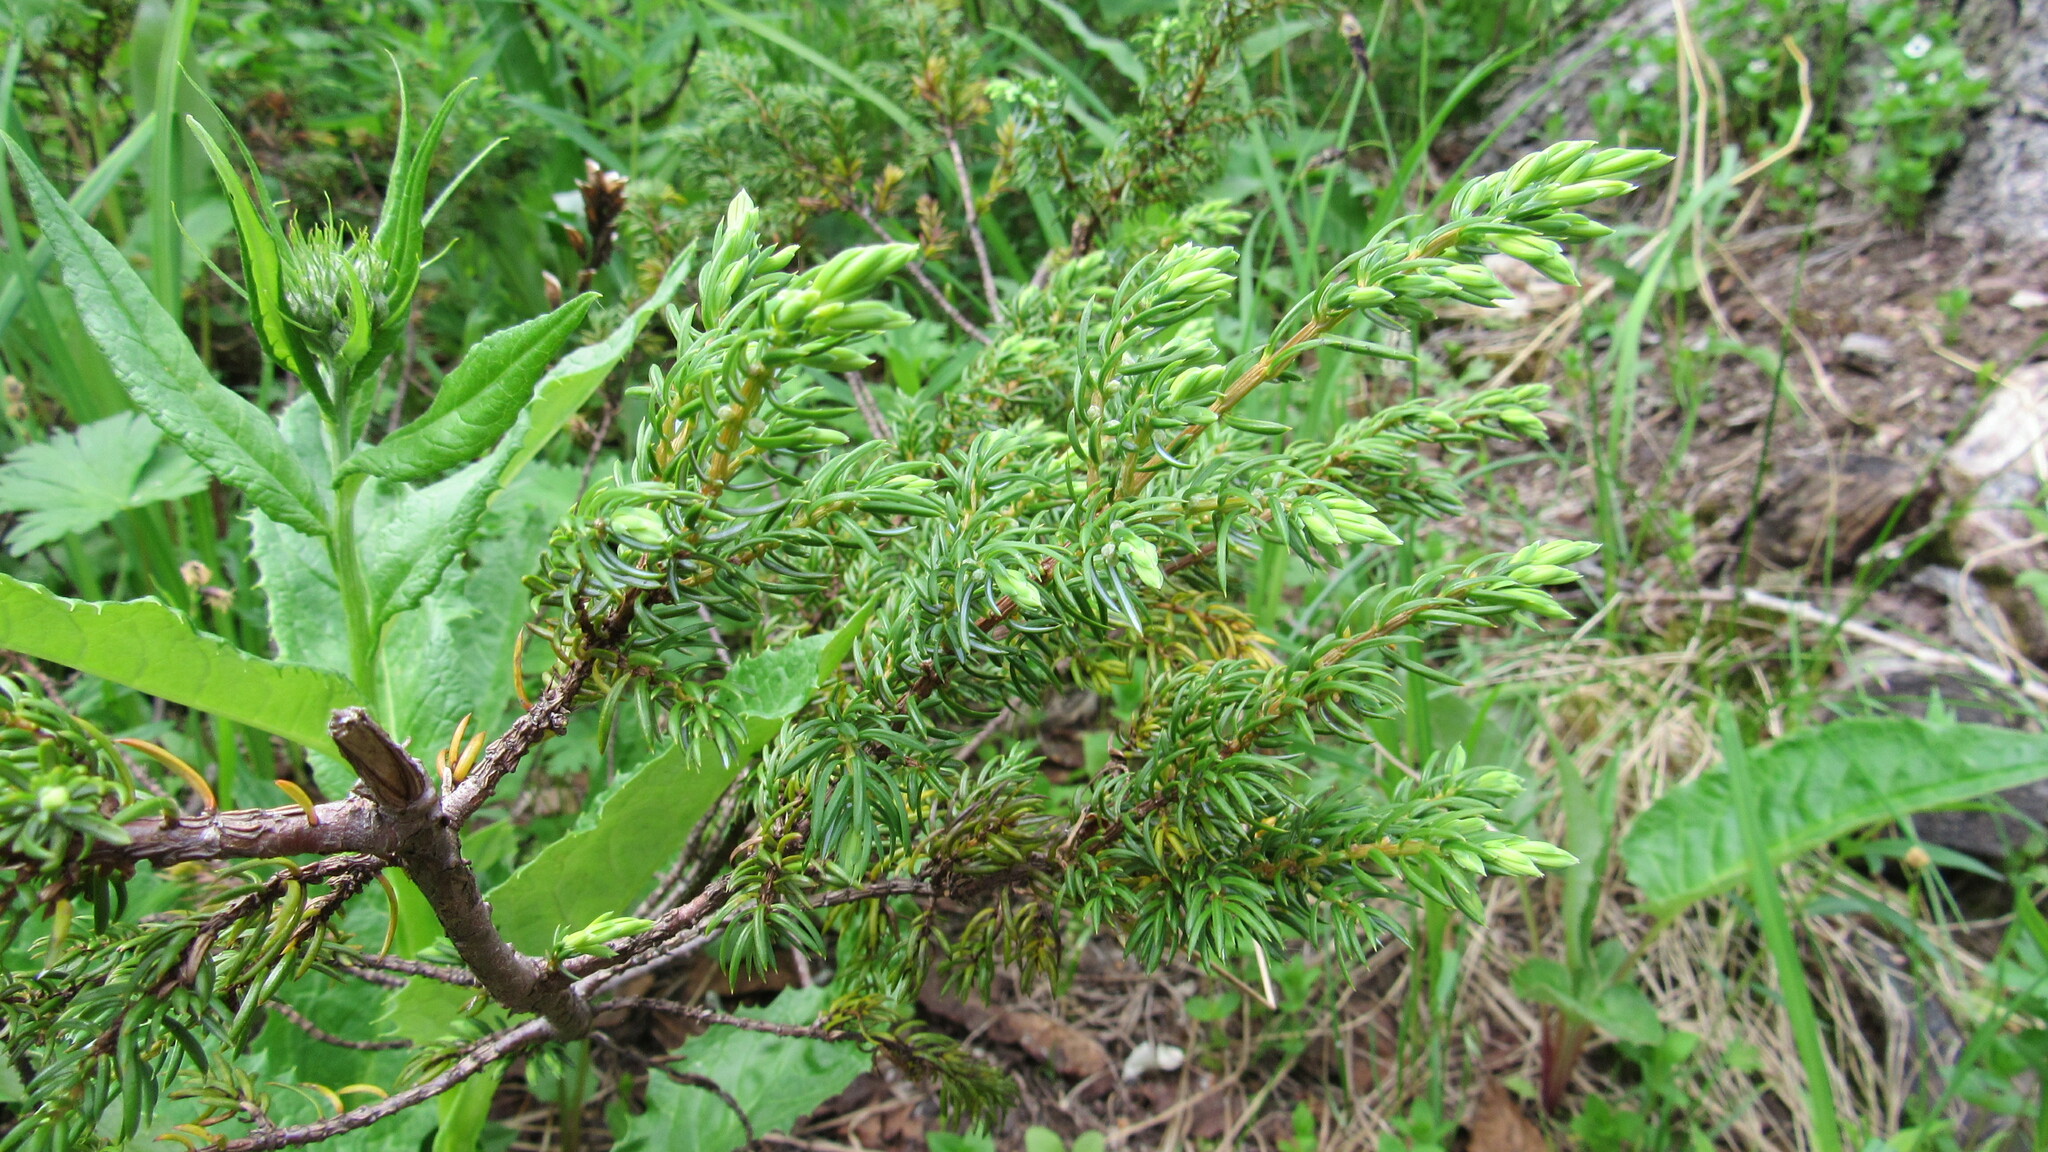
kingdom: Plantae
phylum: Tracheophyta
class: Magnoliopsida
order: Ericales
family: Ericaceae
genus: Phyllodoce
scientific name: Phyllodoce aleutica
